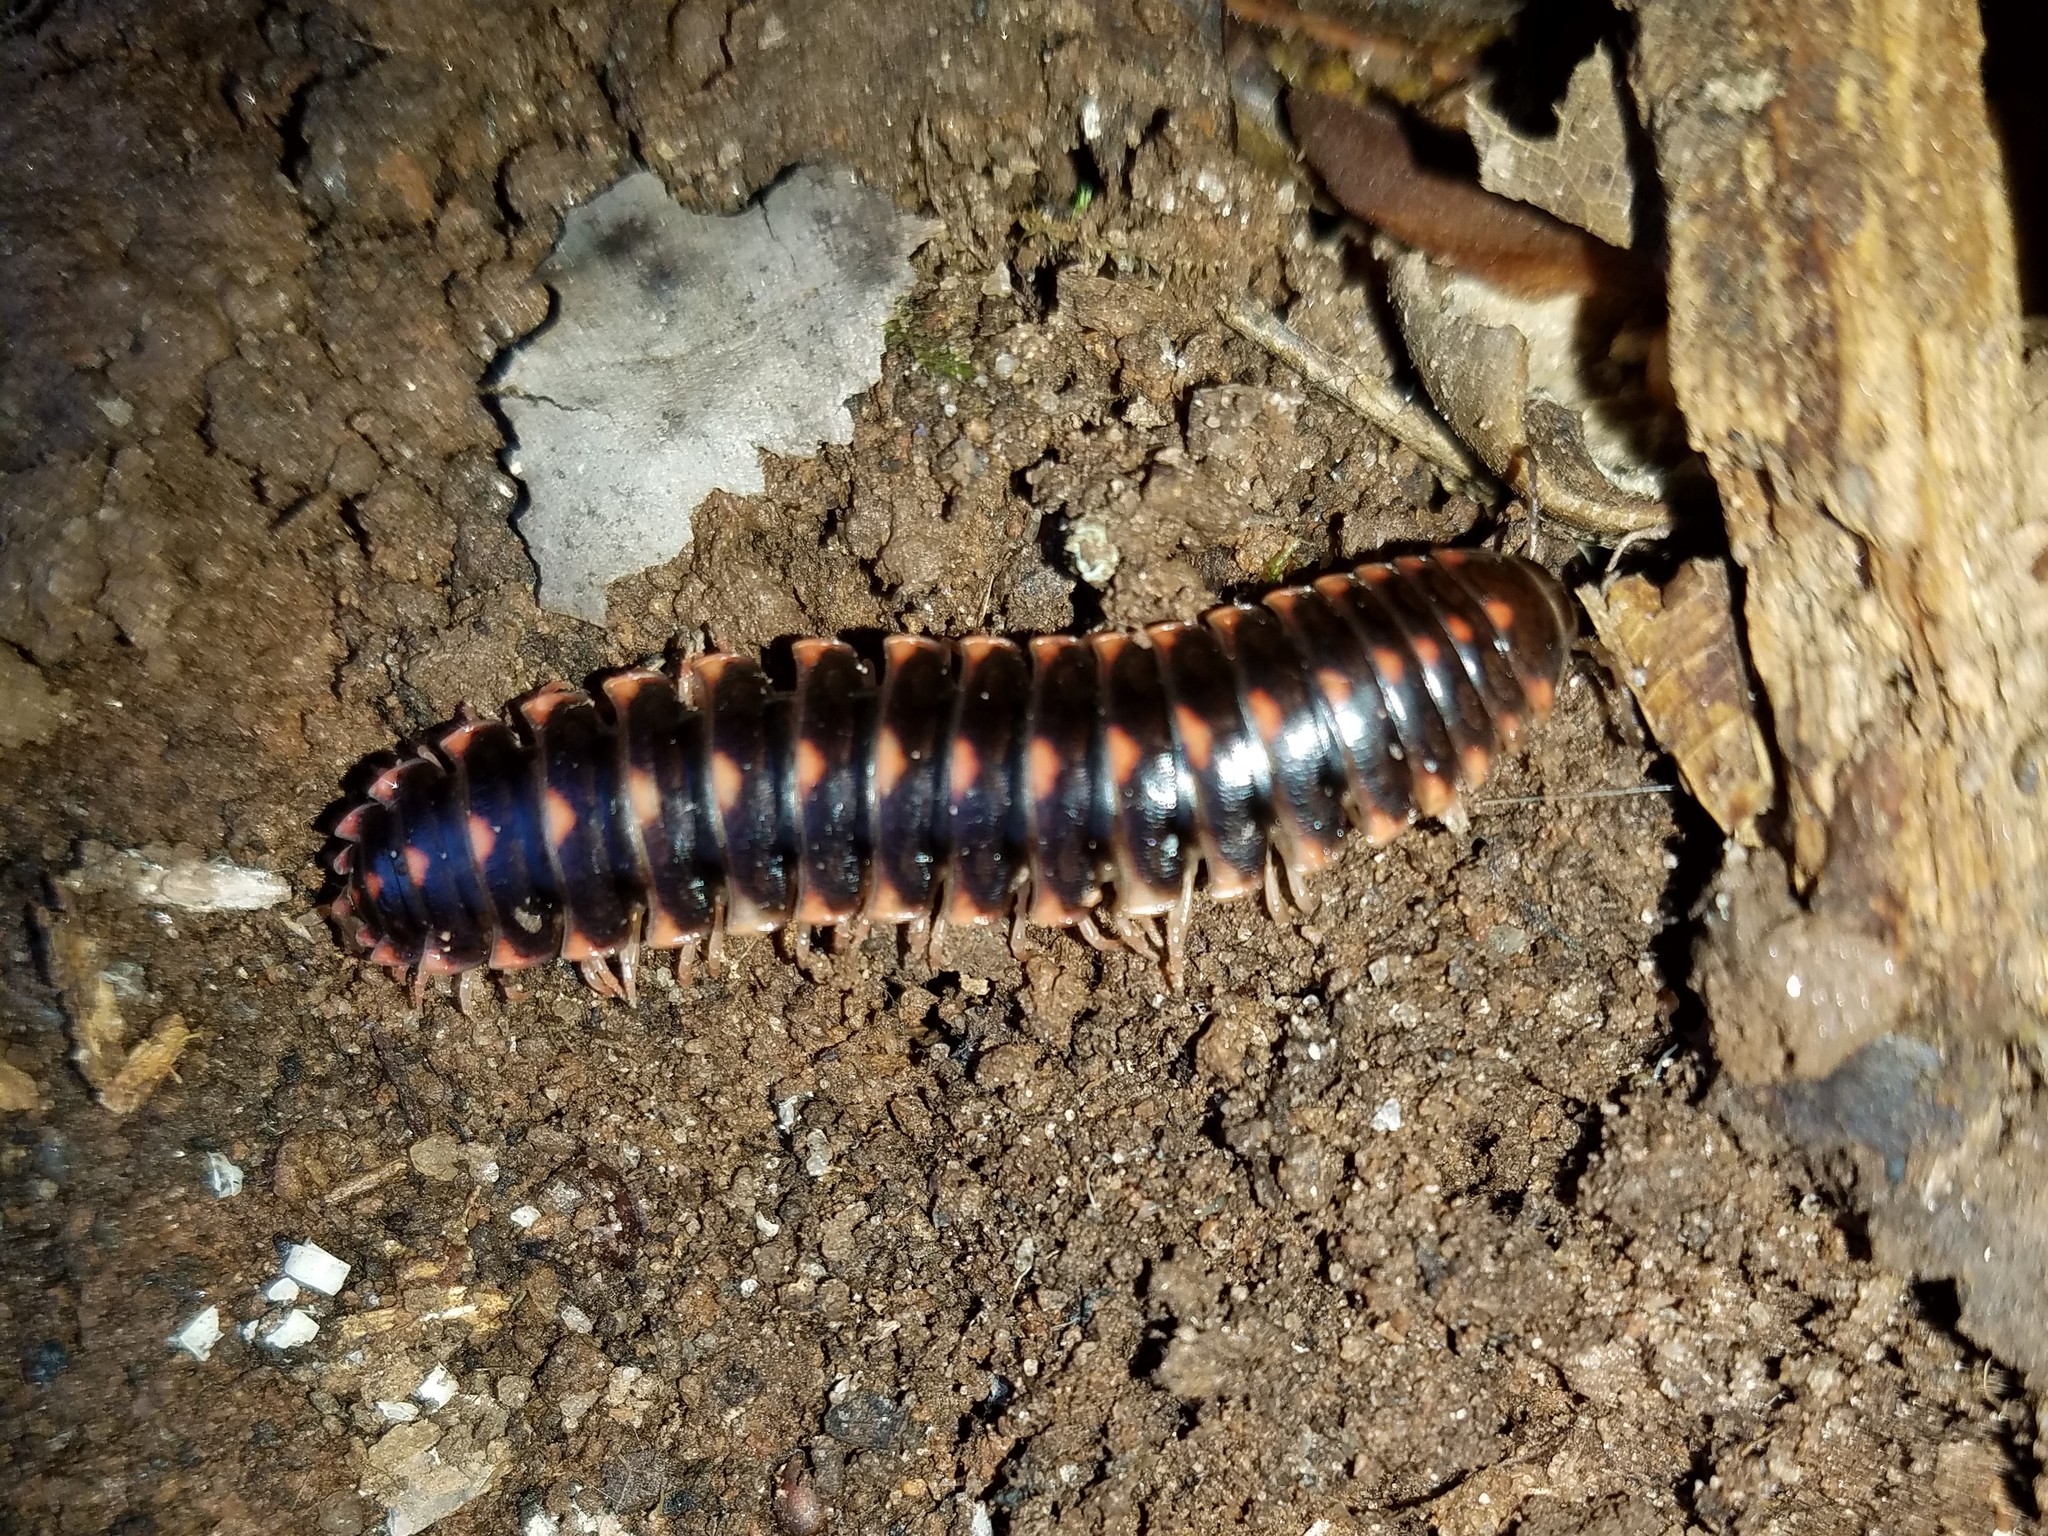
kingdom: Animalia
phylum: Arthropoda
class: Diplopoda
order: Polydesmida
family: Xystodesmidae
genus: Cherokia
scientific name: Cherokia georgiana
